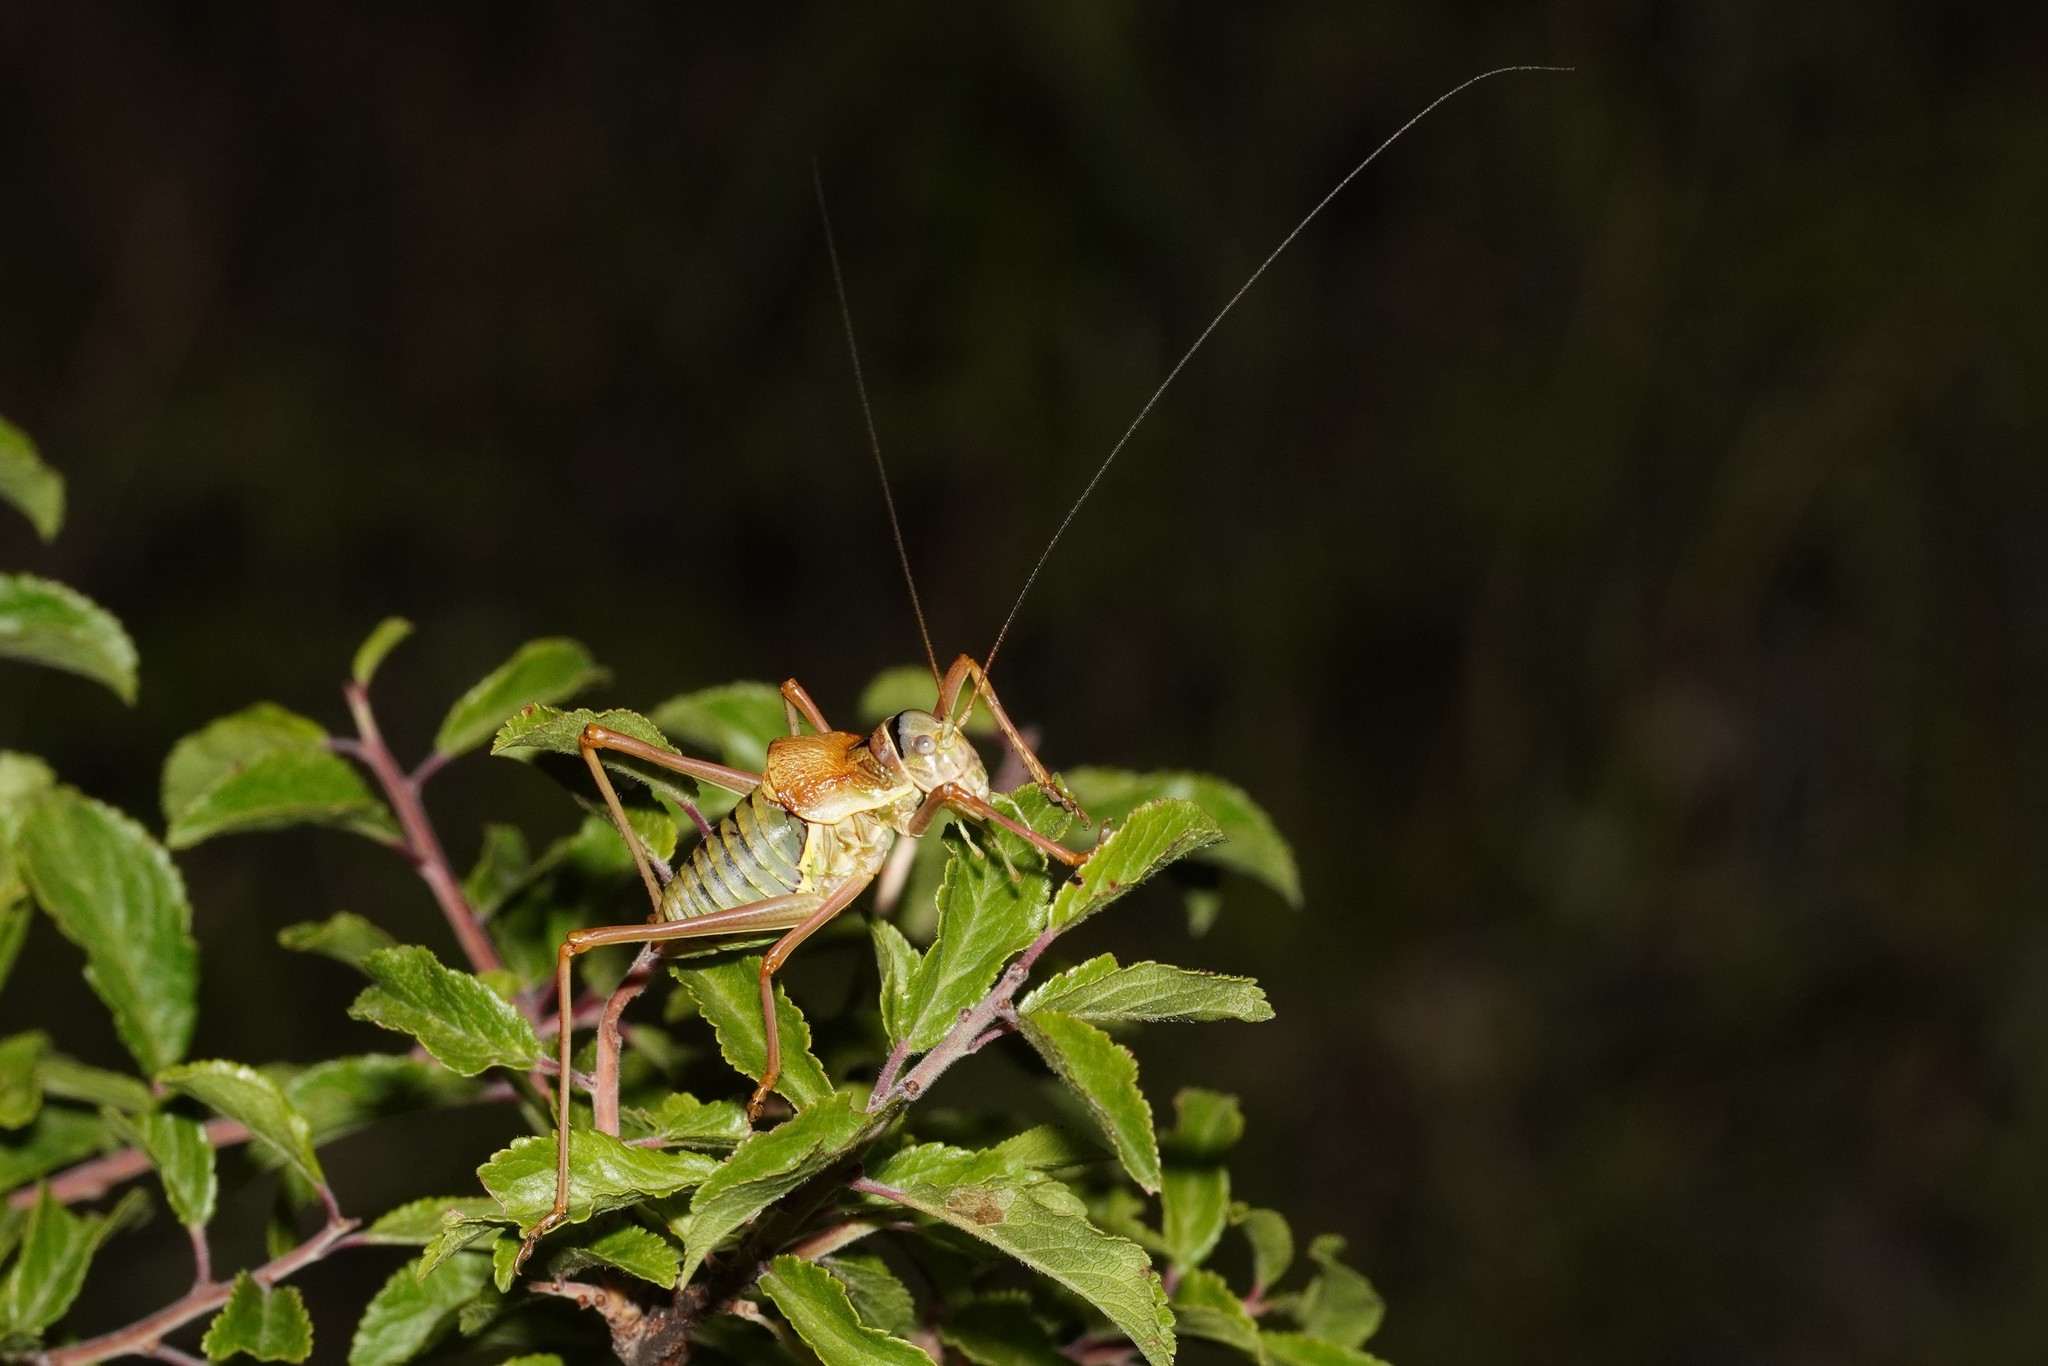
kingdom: Animalia
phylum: Arthropoda
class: Insecta
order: Orthoptera
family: Tettigoniidae
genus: Ephippiger
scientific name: Ephippiger diurnus
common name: Western saddle bush-cricket
